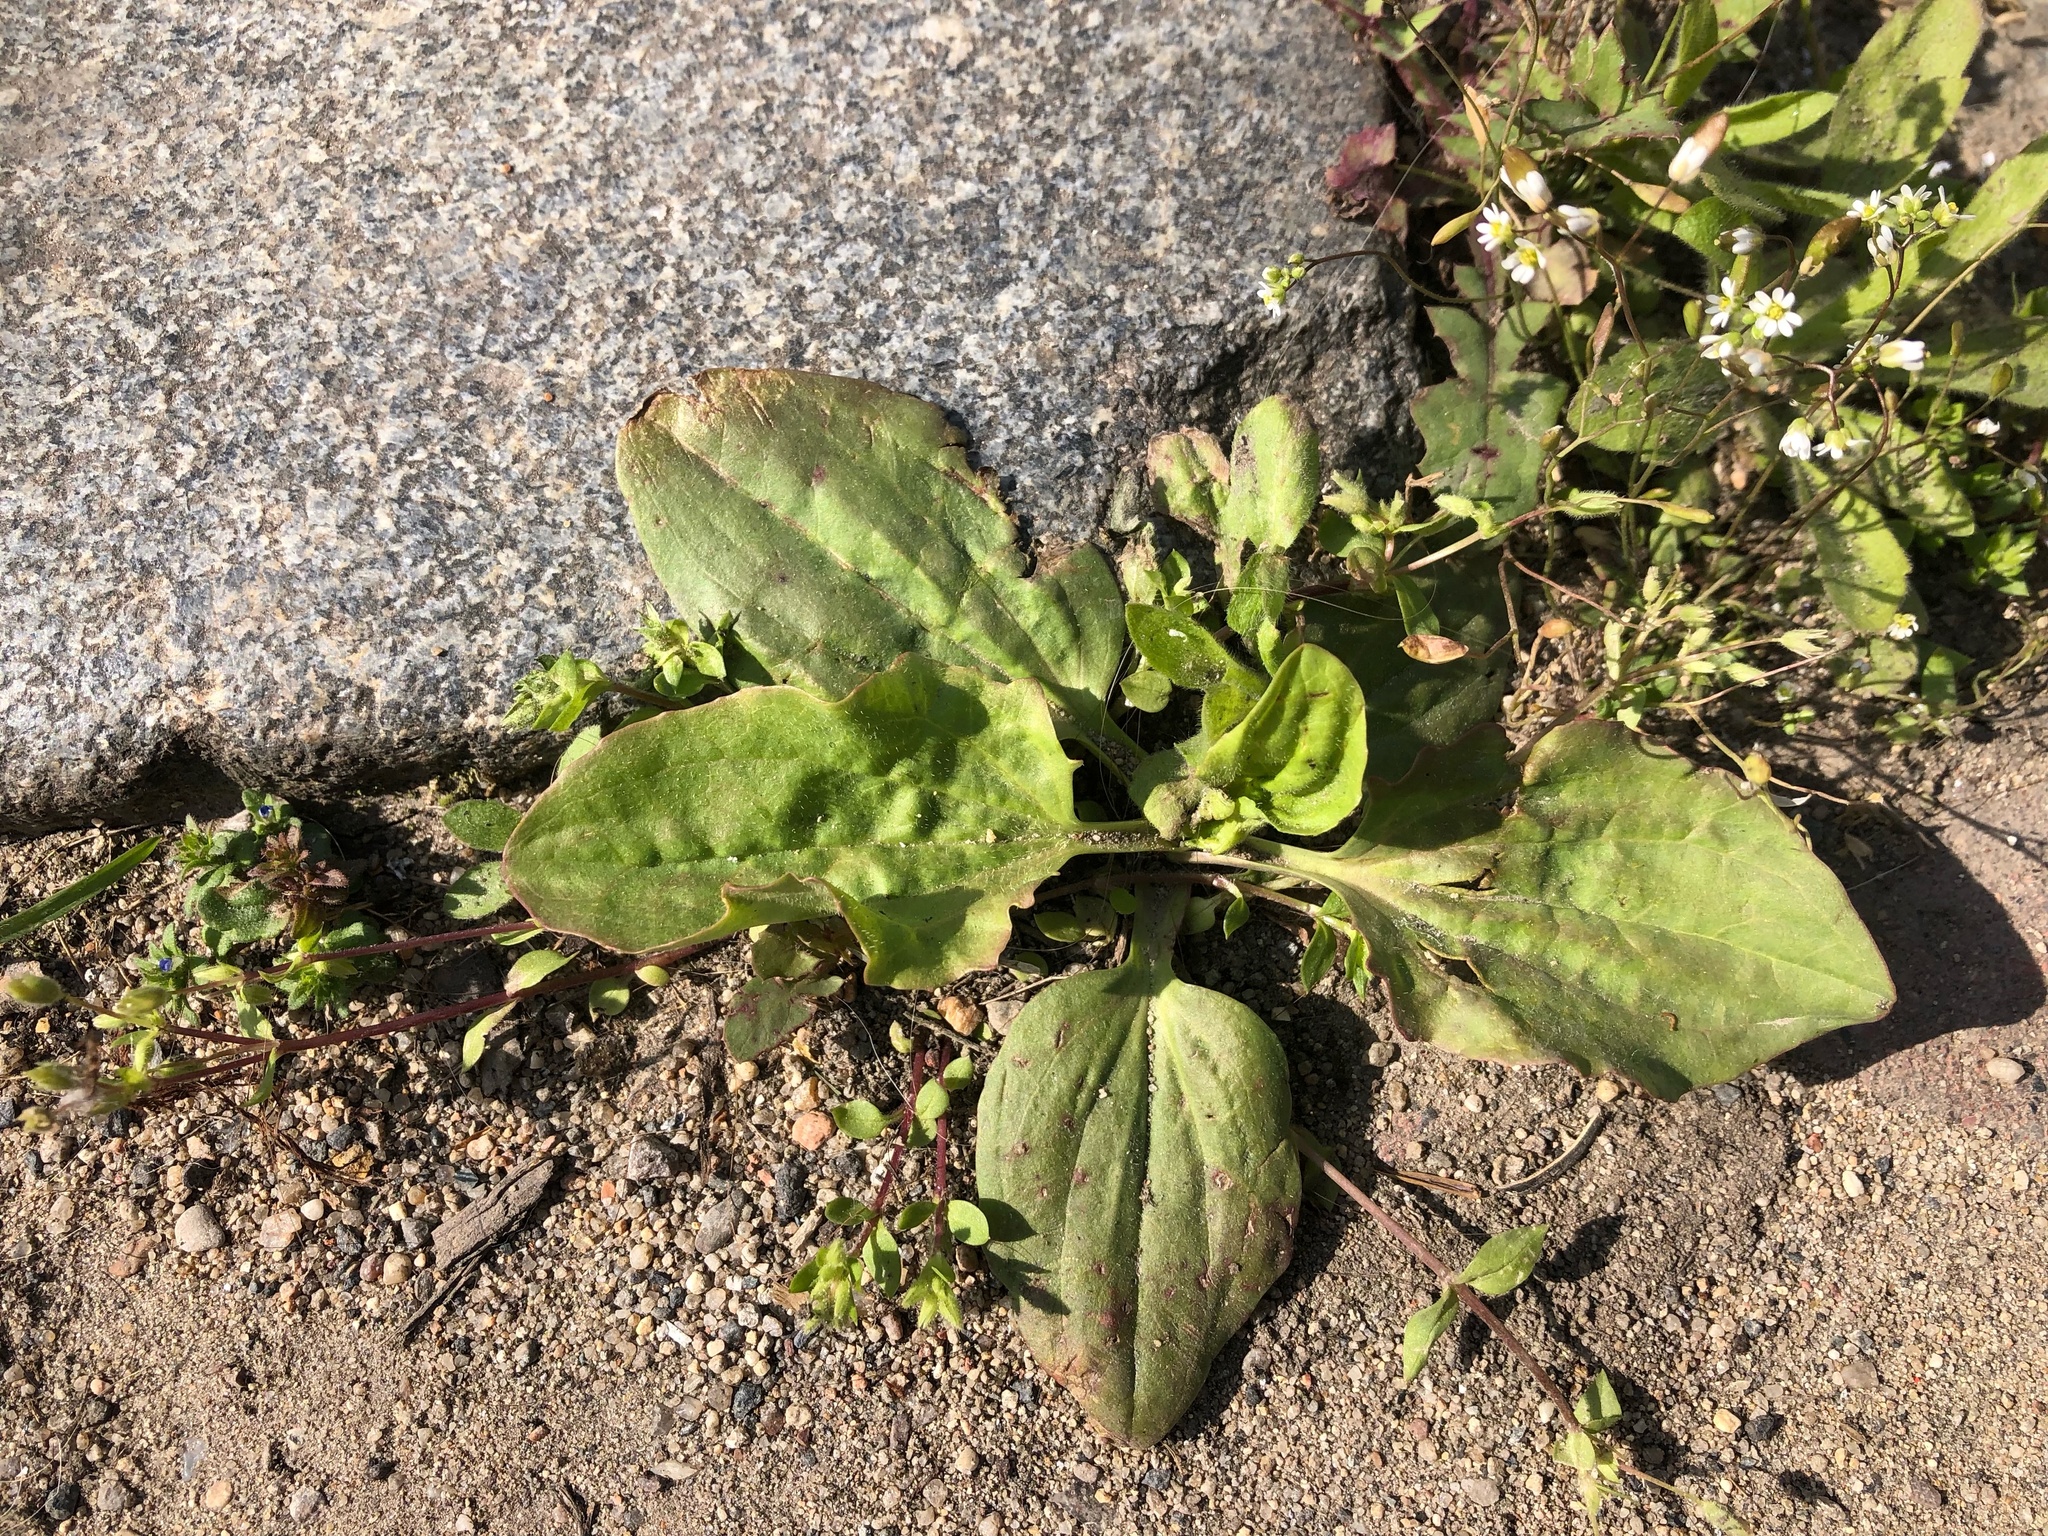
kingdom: Plantae
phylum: Tracheophyta
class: Magnoliopsida
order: Lamiales
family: Plantaginaceae
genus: Plantago
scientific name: Plantago major
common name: Common plantain
